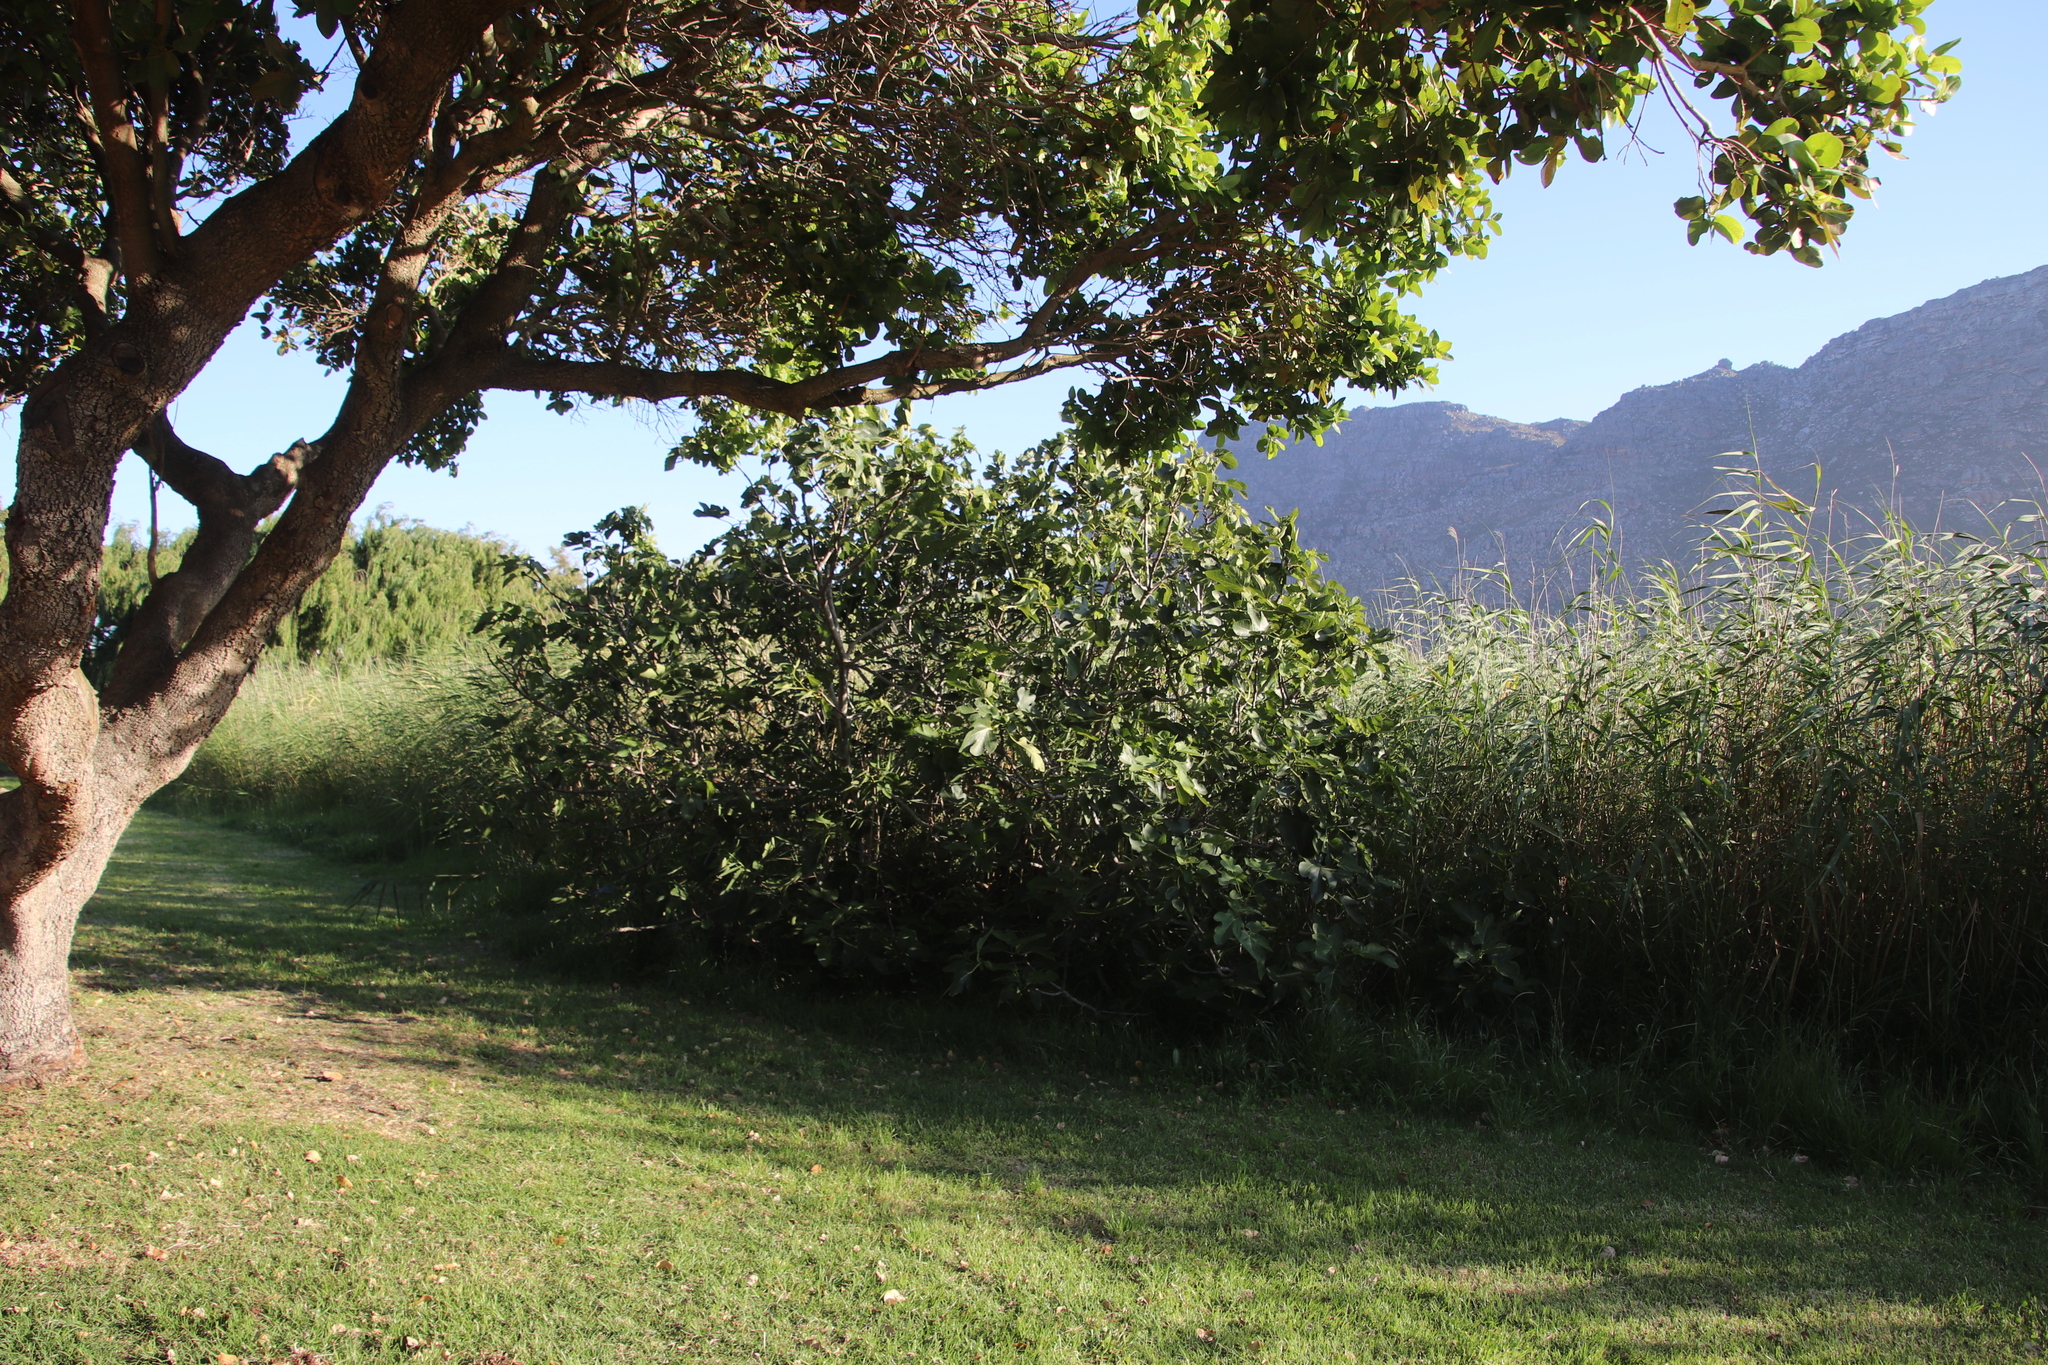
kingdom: Plantae
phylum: Tracheophyta
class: Magnoliopsida
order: Rosales
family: Moraceae
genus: Ficus
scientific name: Ficus carica
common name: Fig
